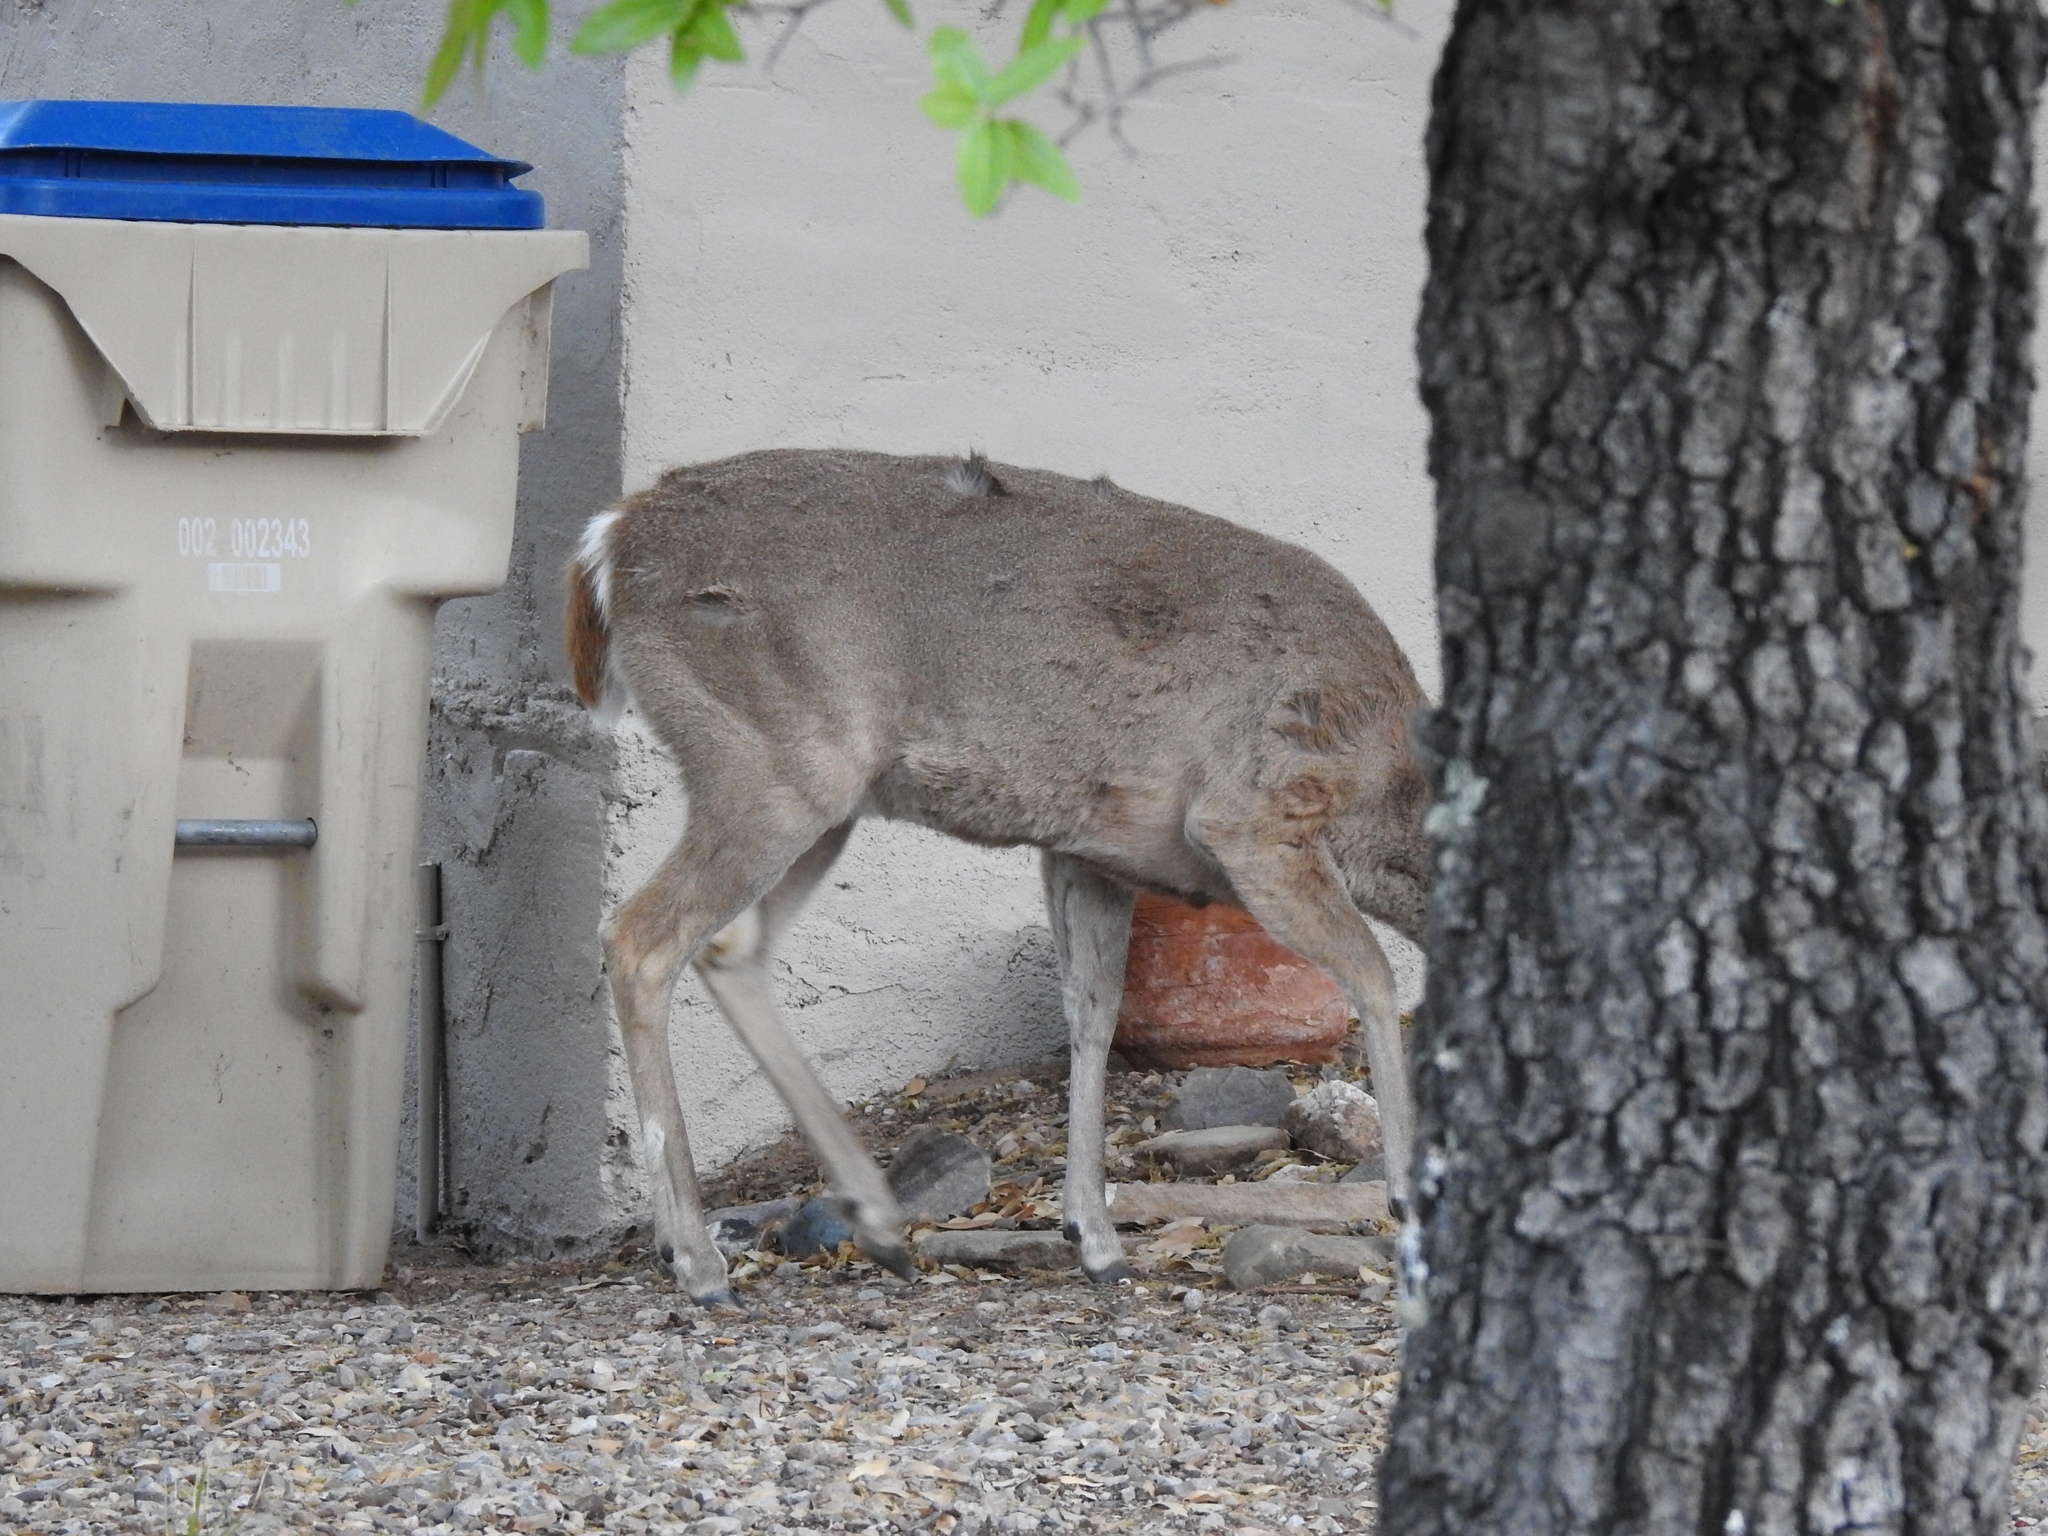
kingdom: Animalia
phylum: Chordata
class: Mammalia
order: Artiodactyla
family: Cervidae
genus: Odocoileus
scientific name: Odocoileus virginianus
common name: White-tailed deer
